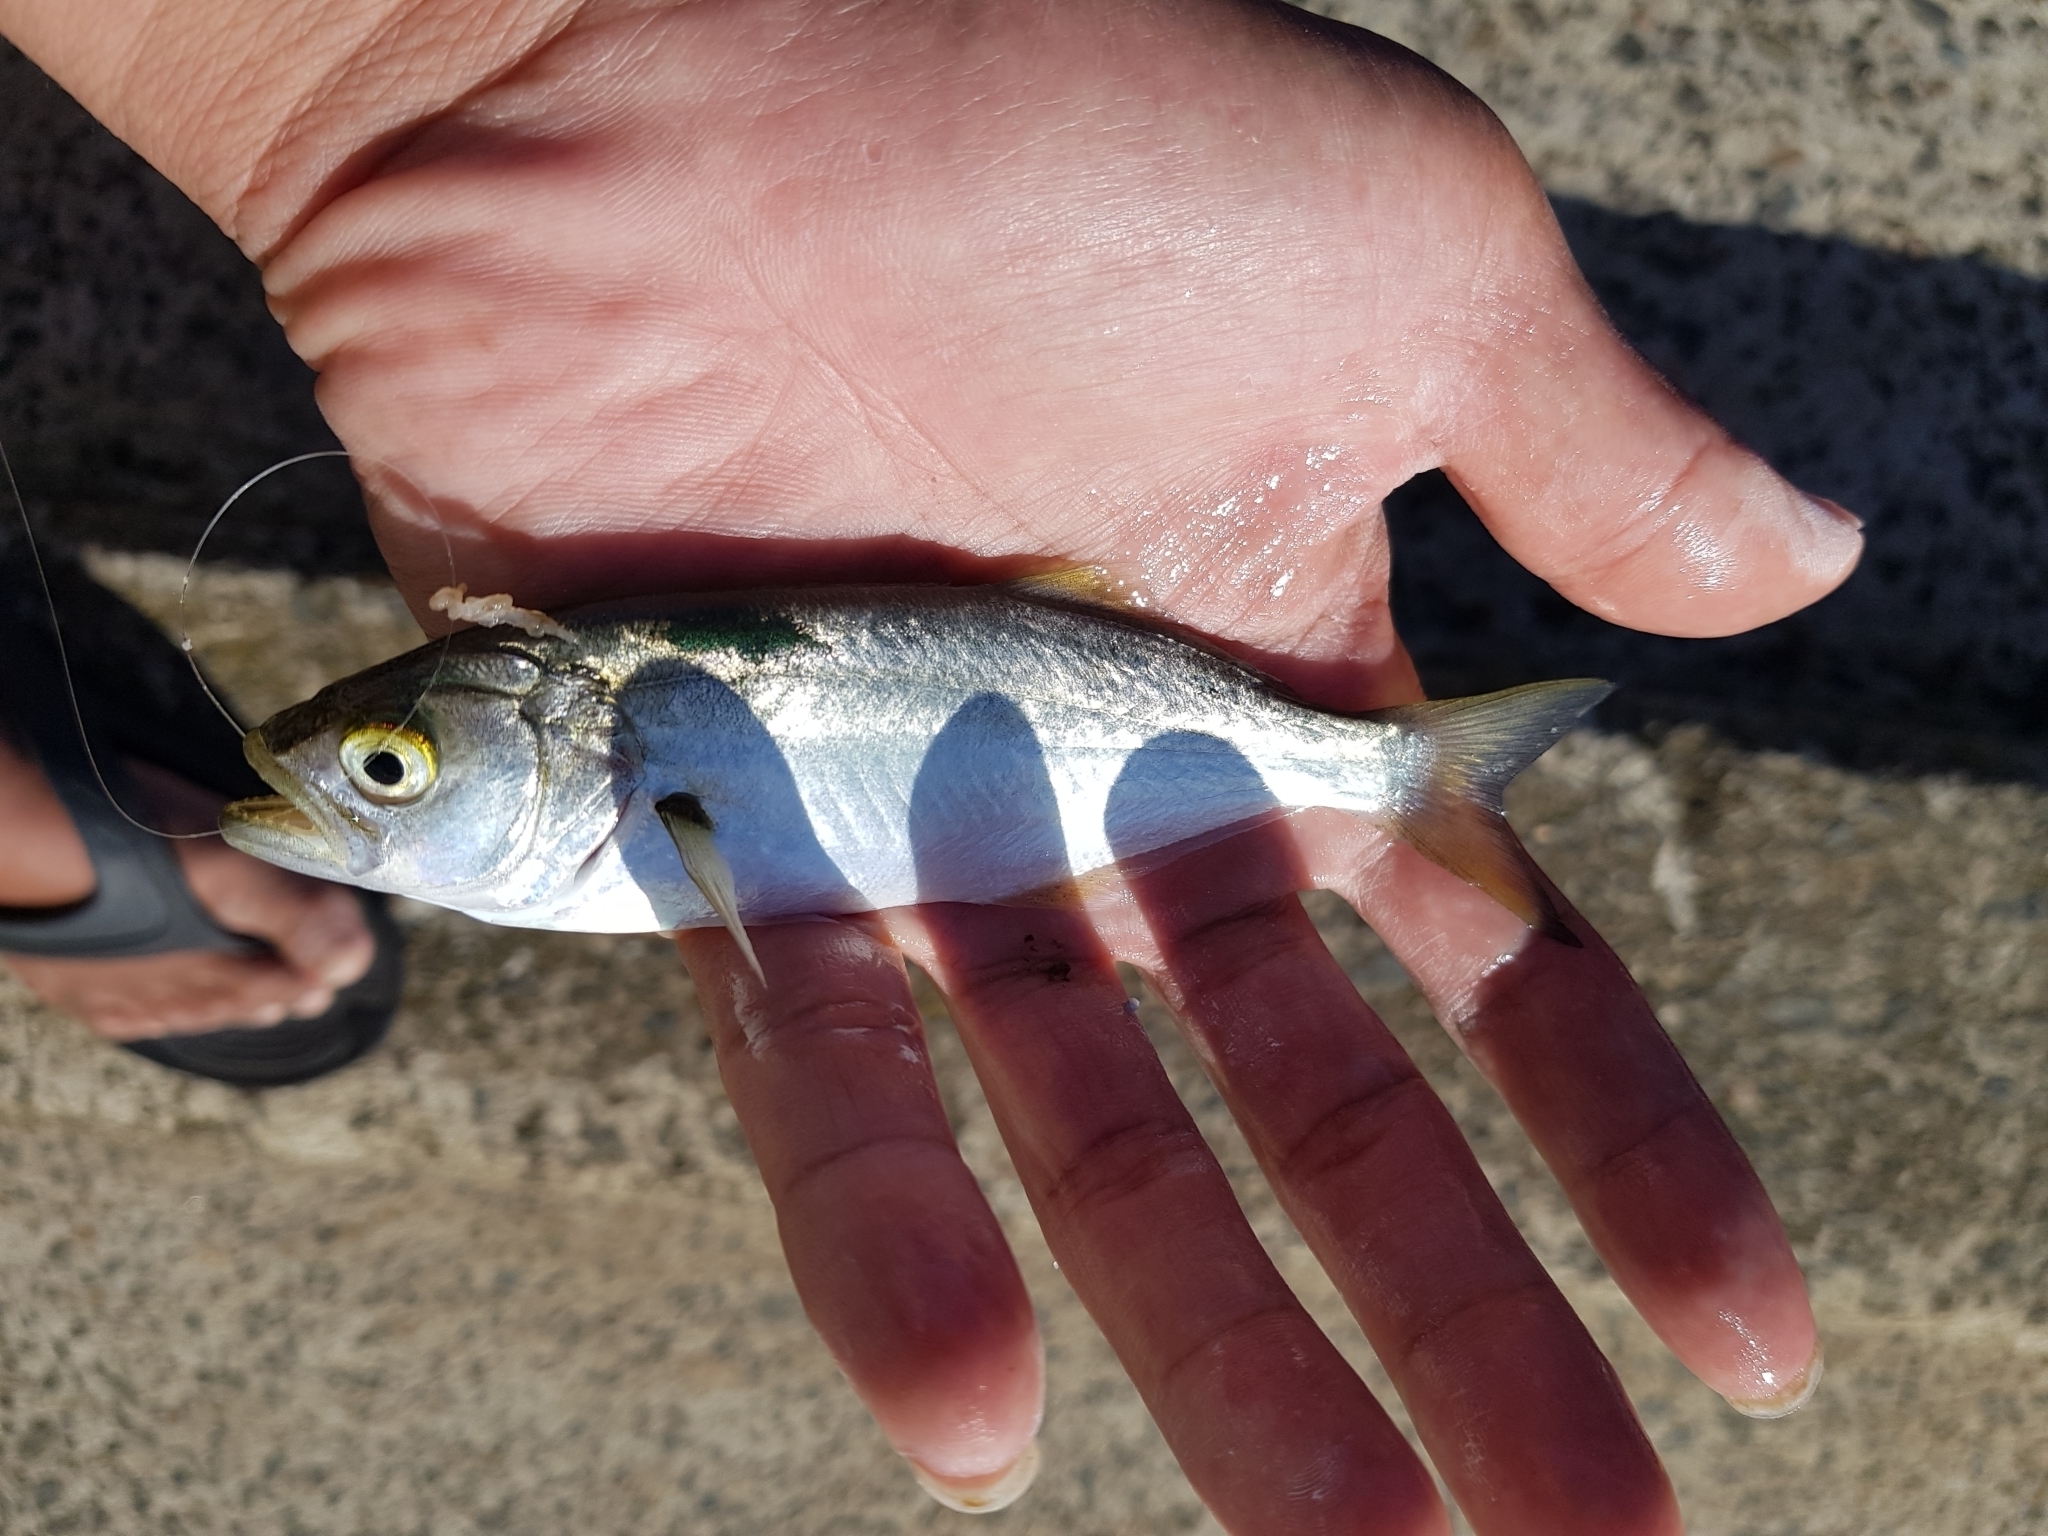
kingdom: Animalia
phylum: Chordata
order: Perciformes
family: Pomatomidae
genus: Pomatomus
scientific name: Pomatomus saltatrix
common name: Bluefish
